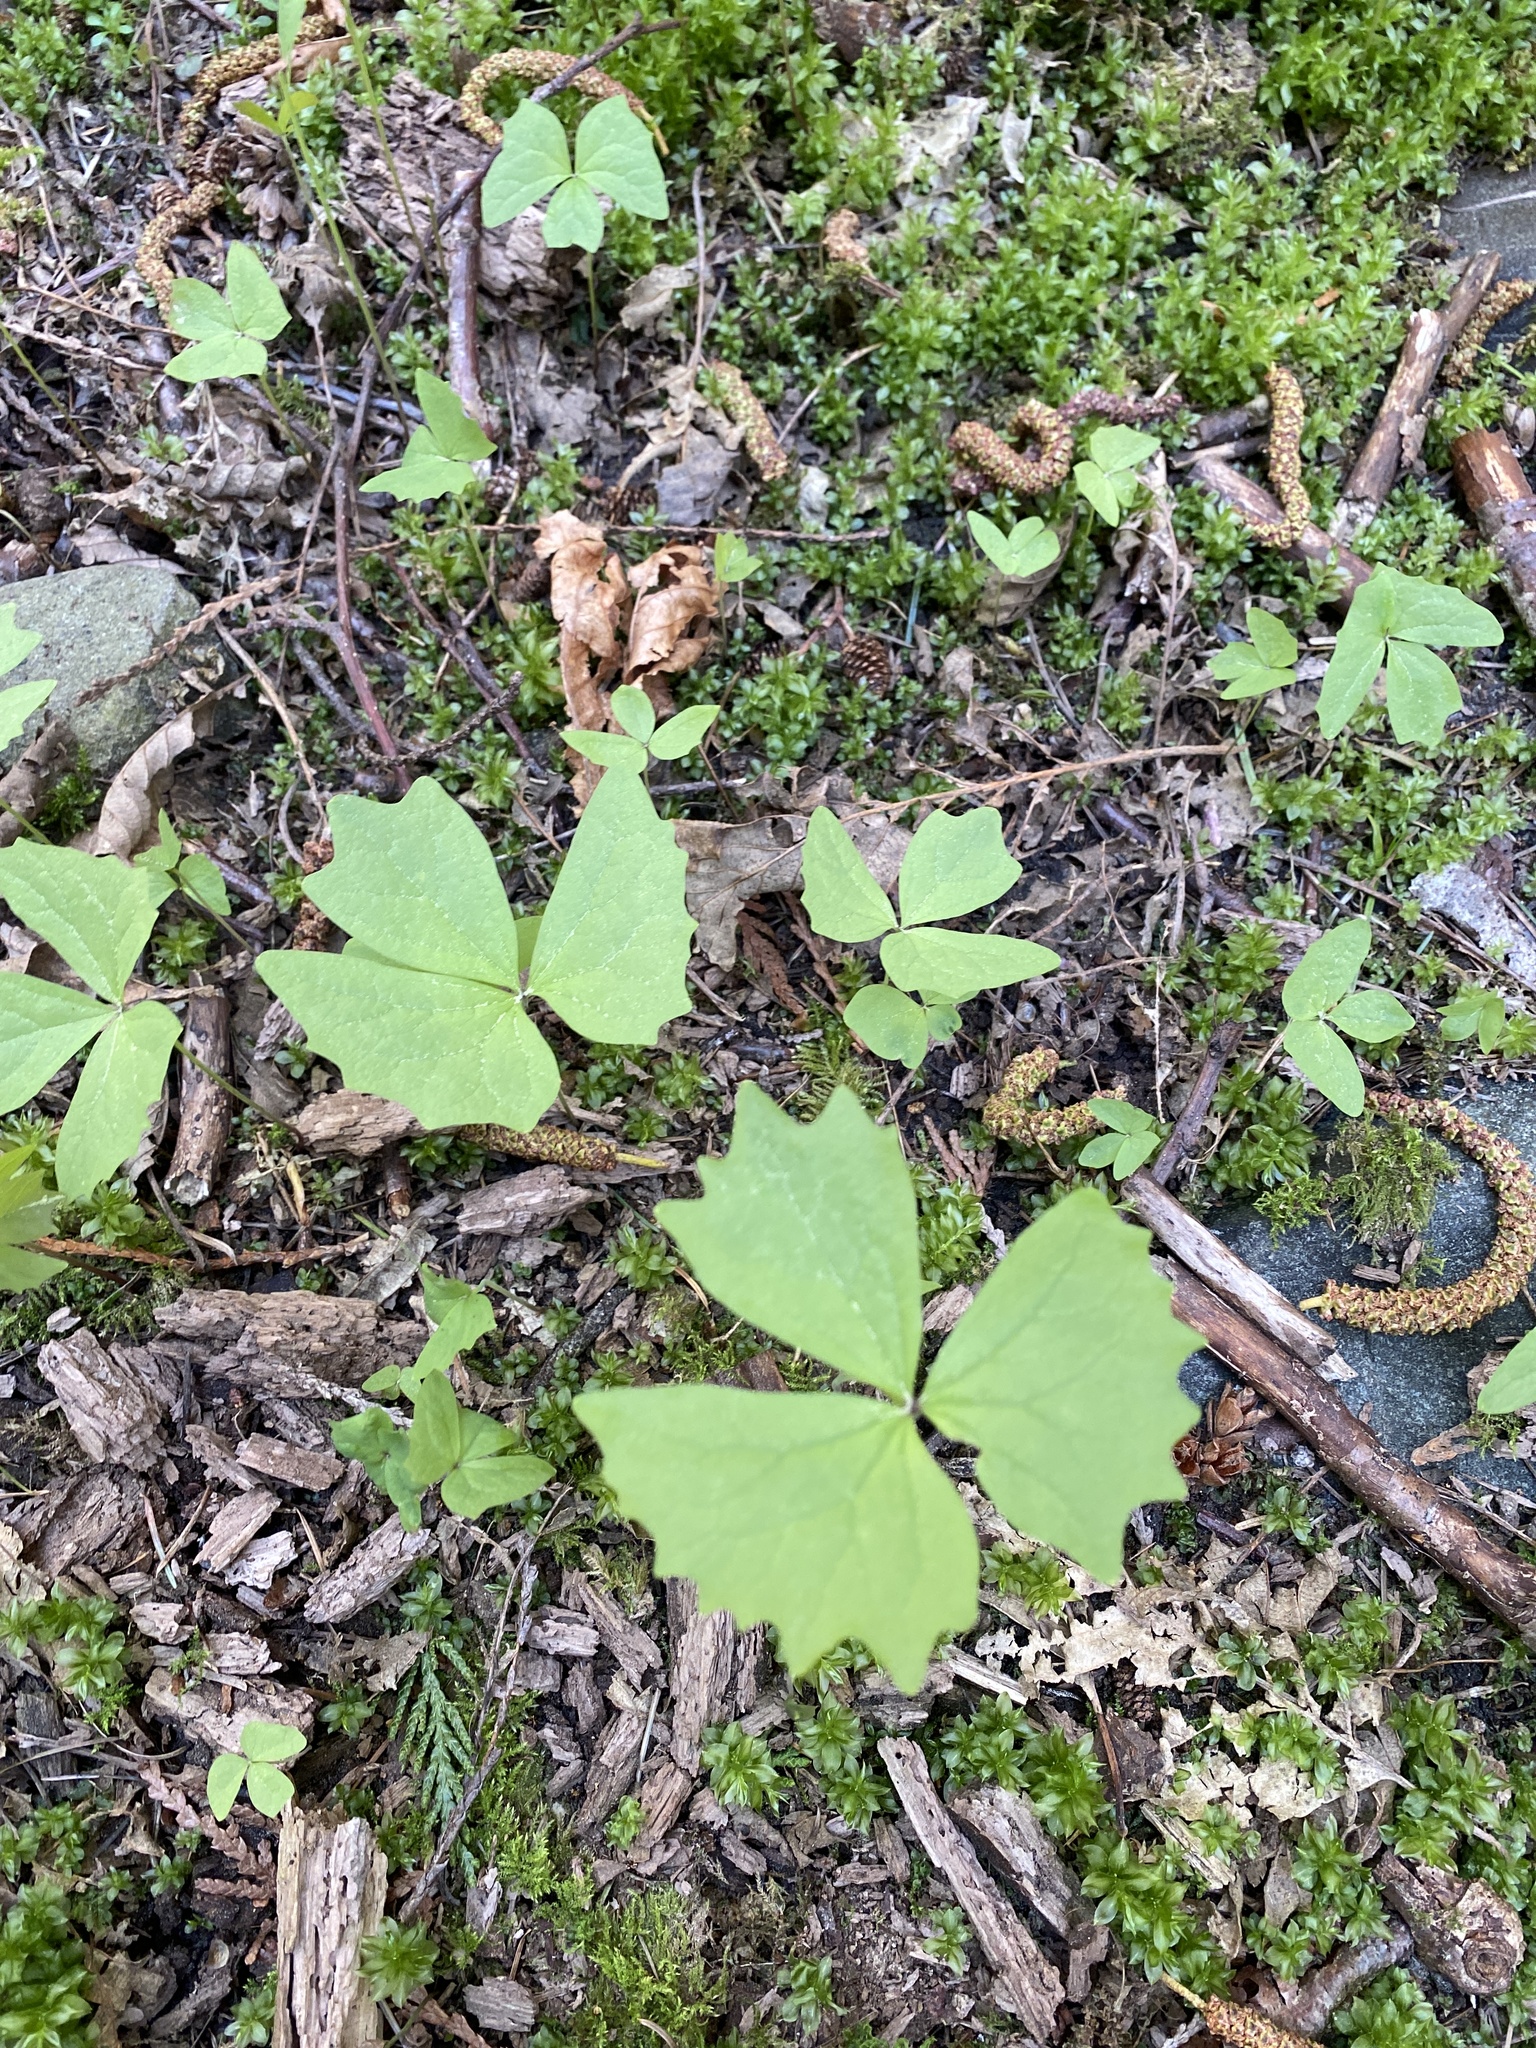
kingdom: Plantae
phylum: Tracheophyta
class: Magnoliopsida
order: Ranunculales
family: Berberidaceae
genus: Achlys
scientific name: Achlys triphylla
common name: Vanilla-leaf
